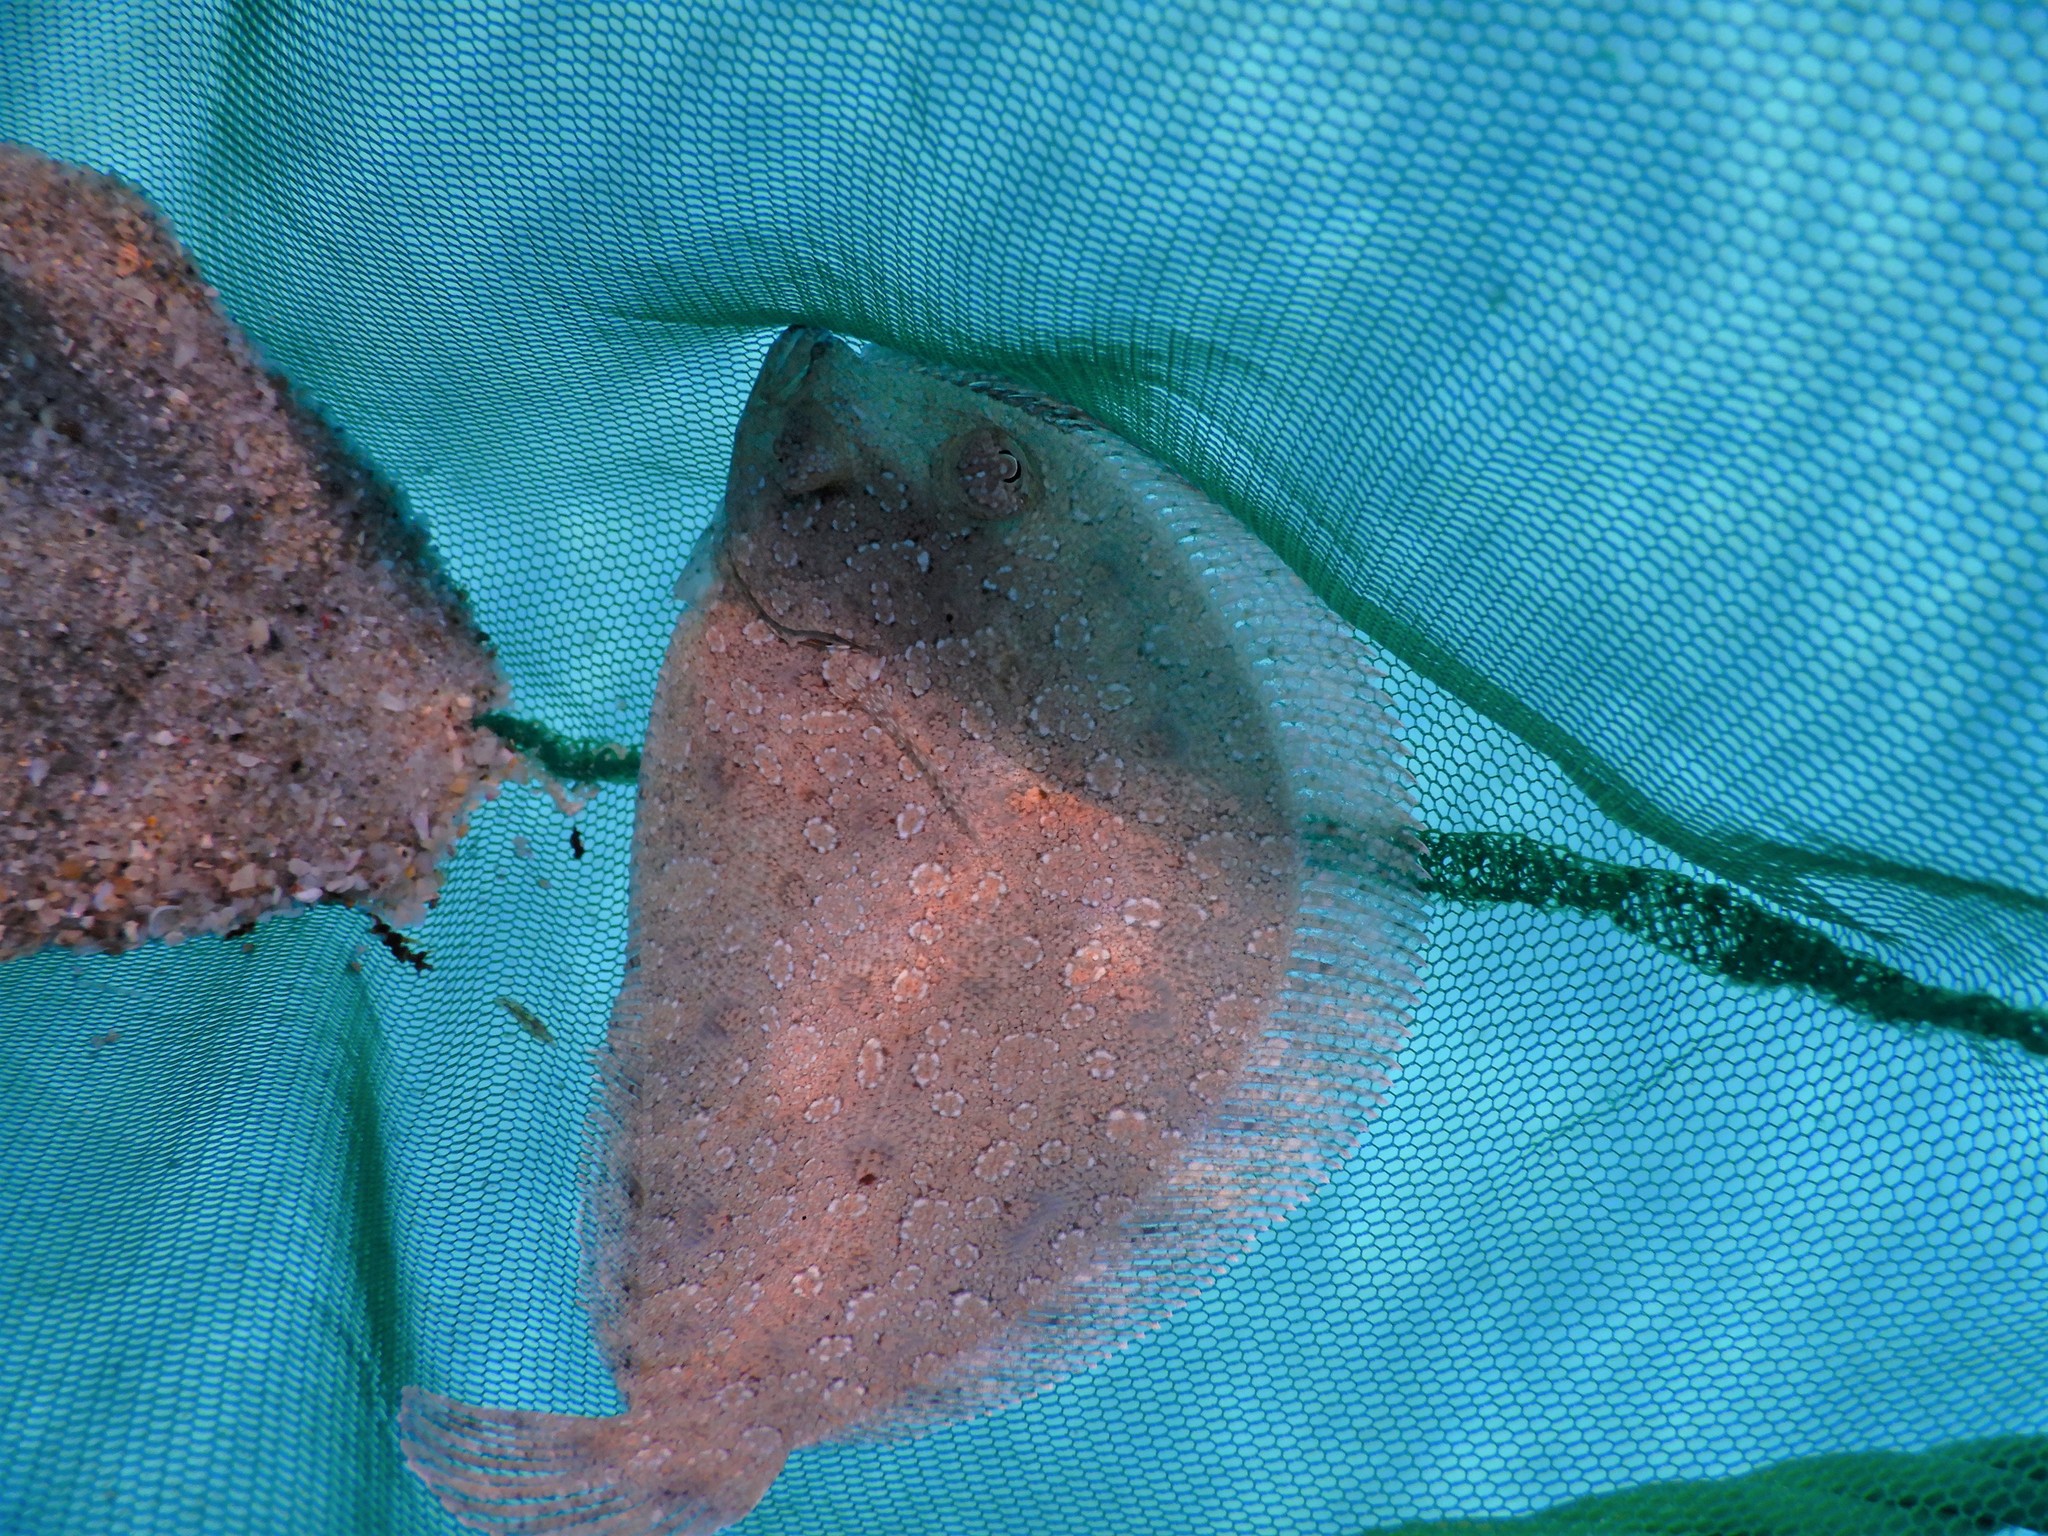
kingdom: Animalia
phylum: Chordata
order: Pleuronectiformes
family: Bothidae
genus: Bothus
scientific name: Bothus podas
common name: Wide-eyed flounder
